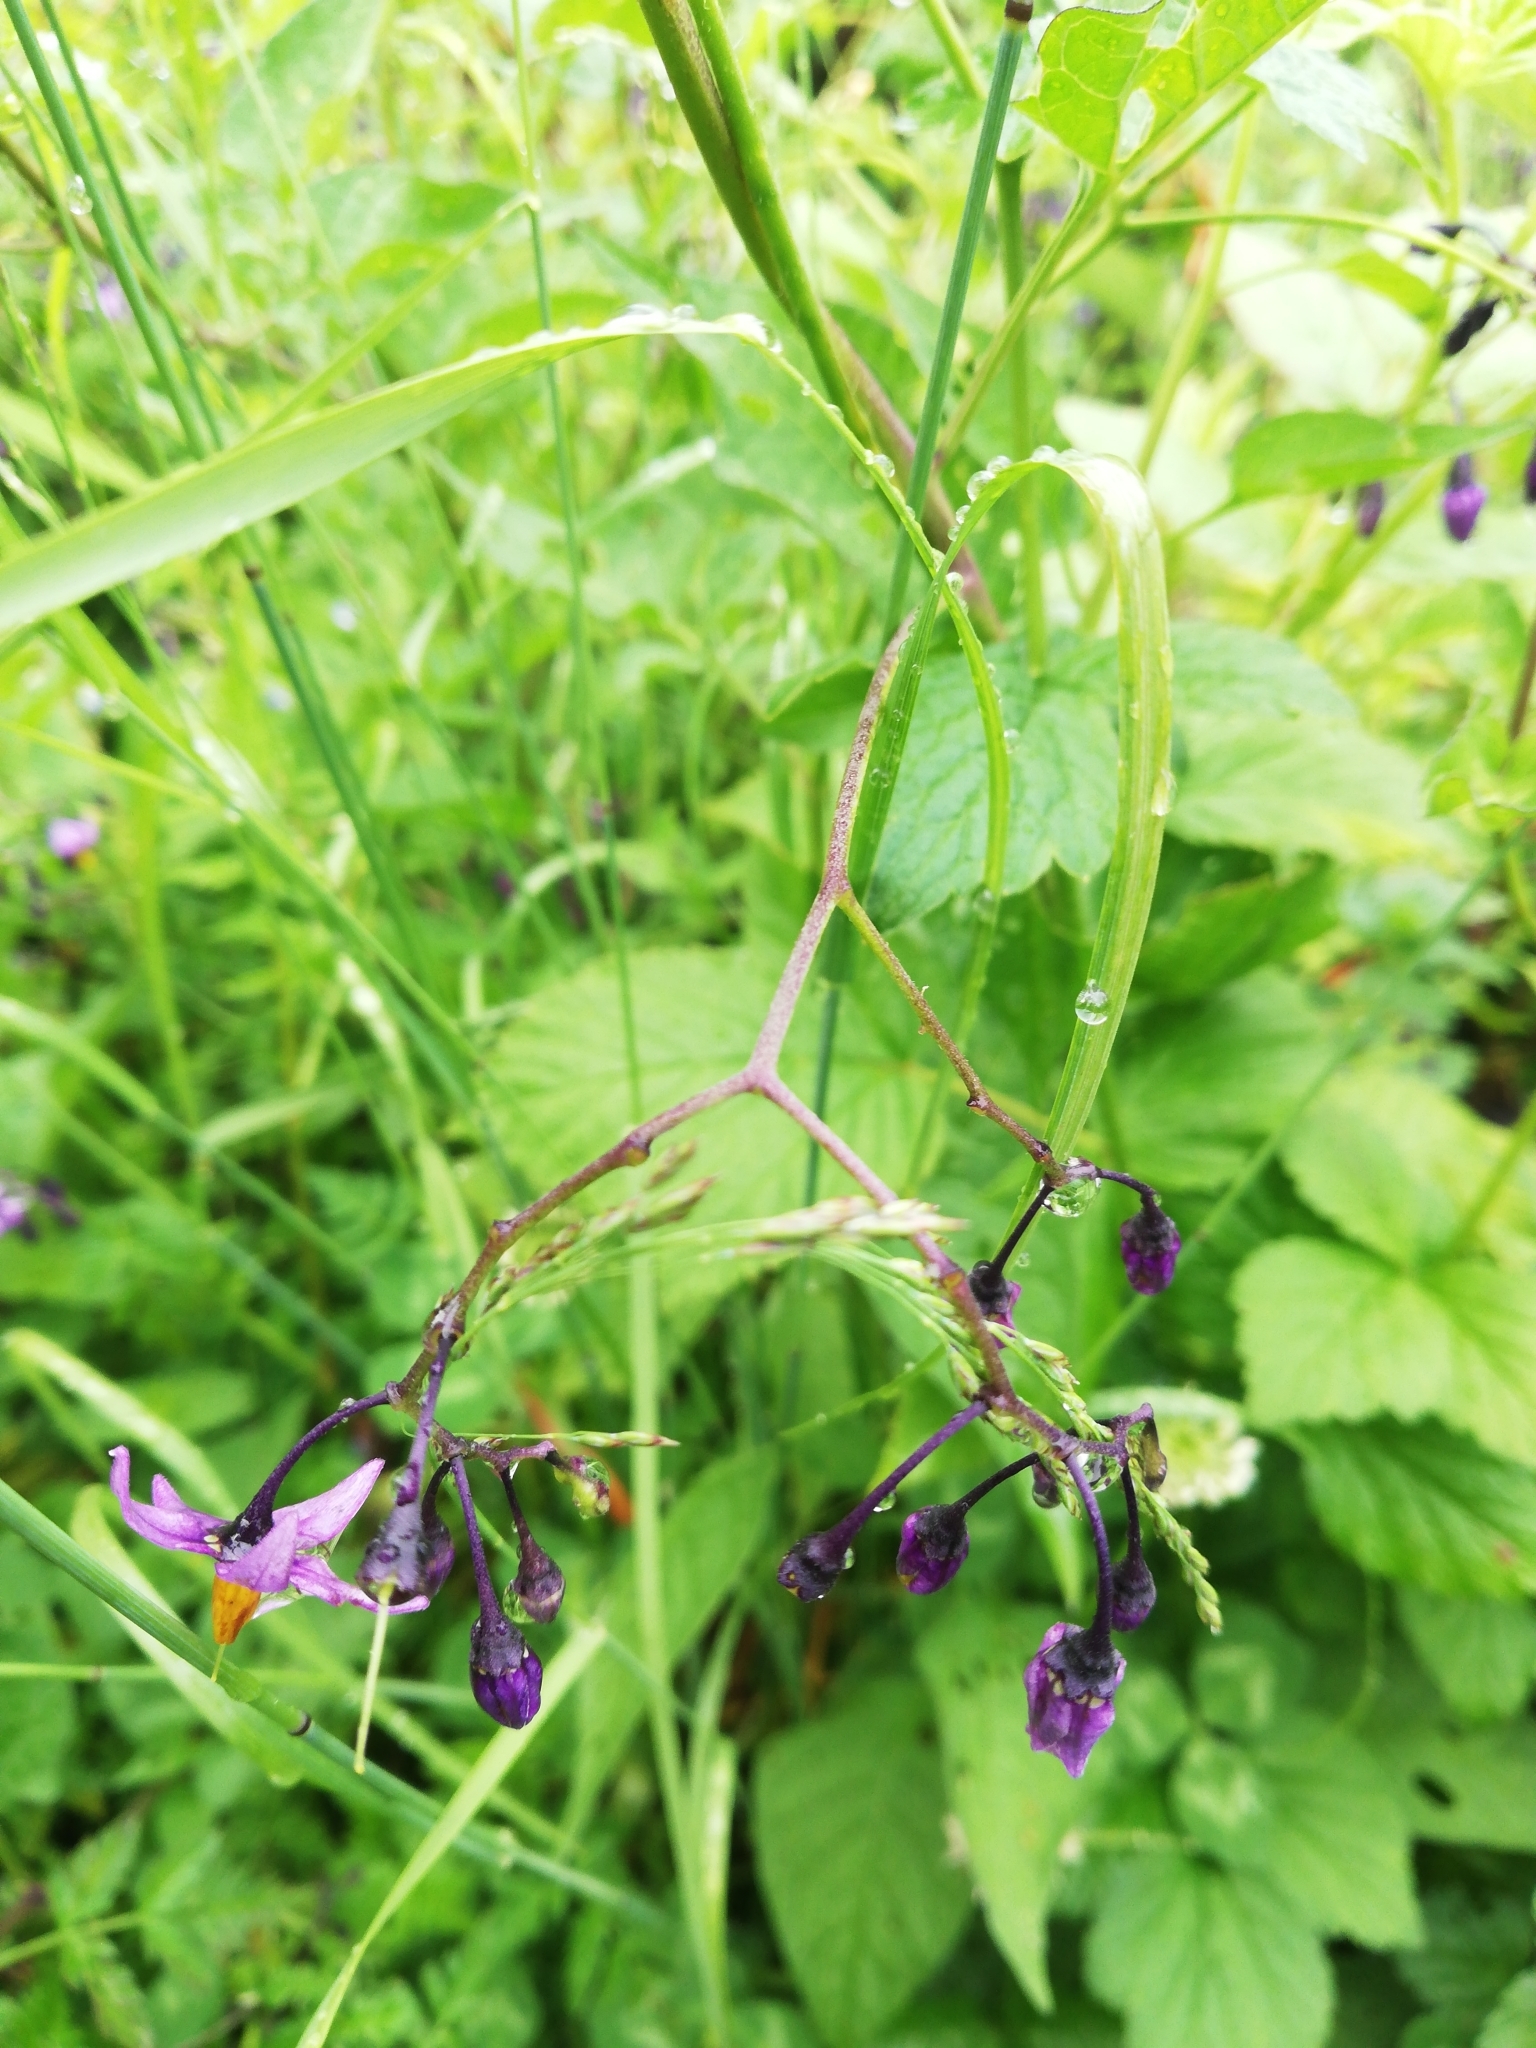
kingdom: Plantae
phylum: Tracheophyta
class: Magnoliopsida
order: Solanales
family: Solanaceae
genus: Solanum
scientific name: Solanum dulcamara
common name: Climbing nightshade
